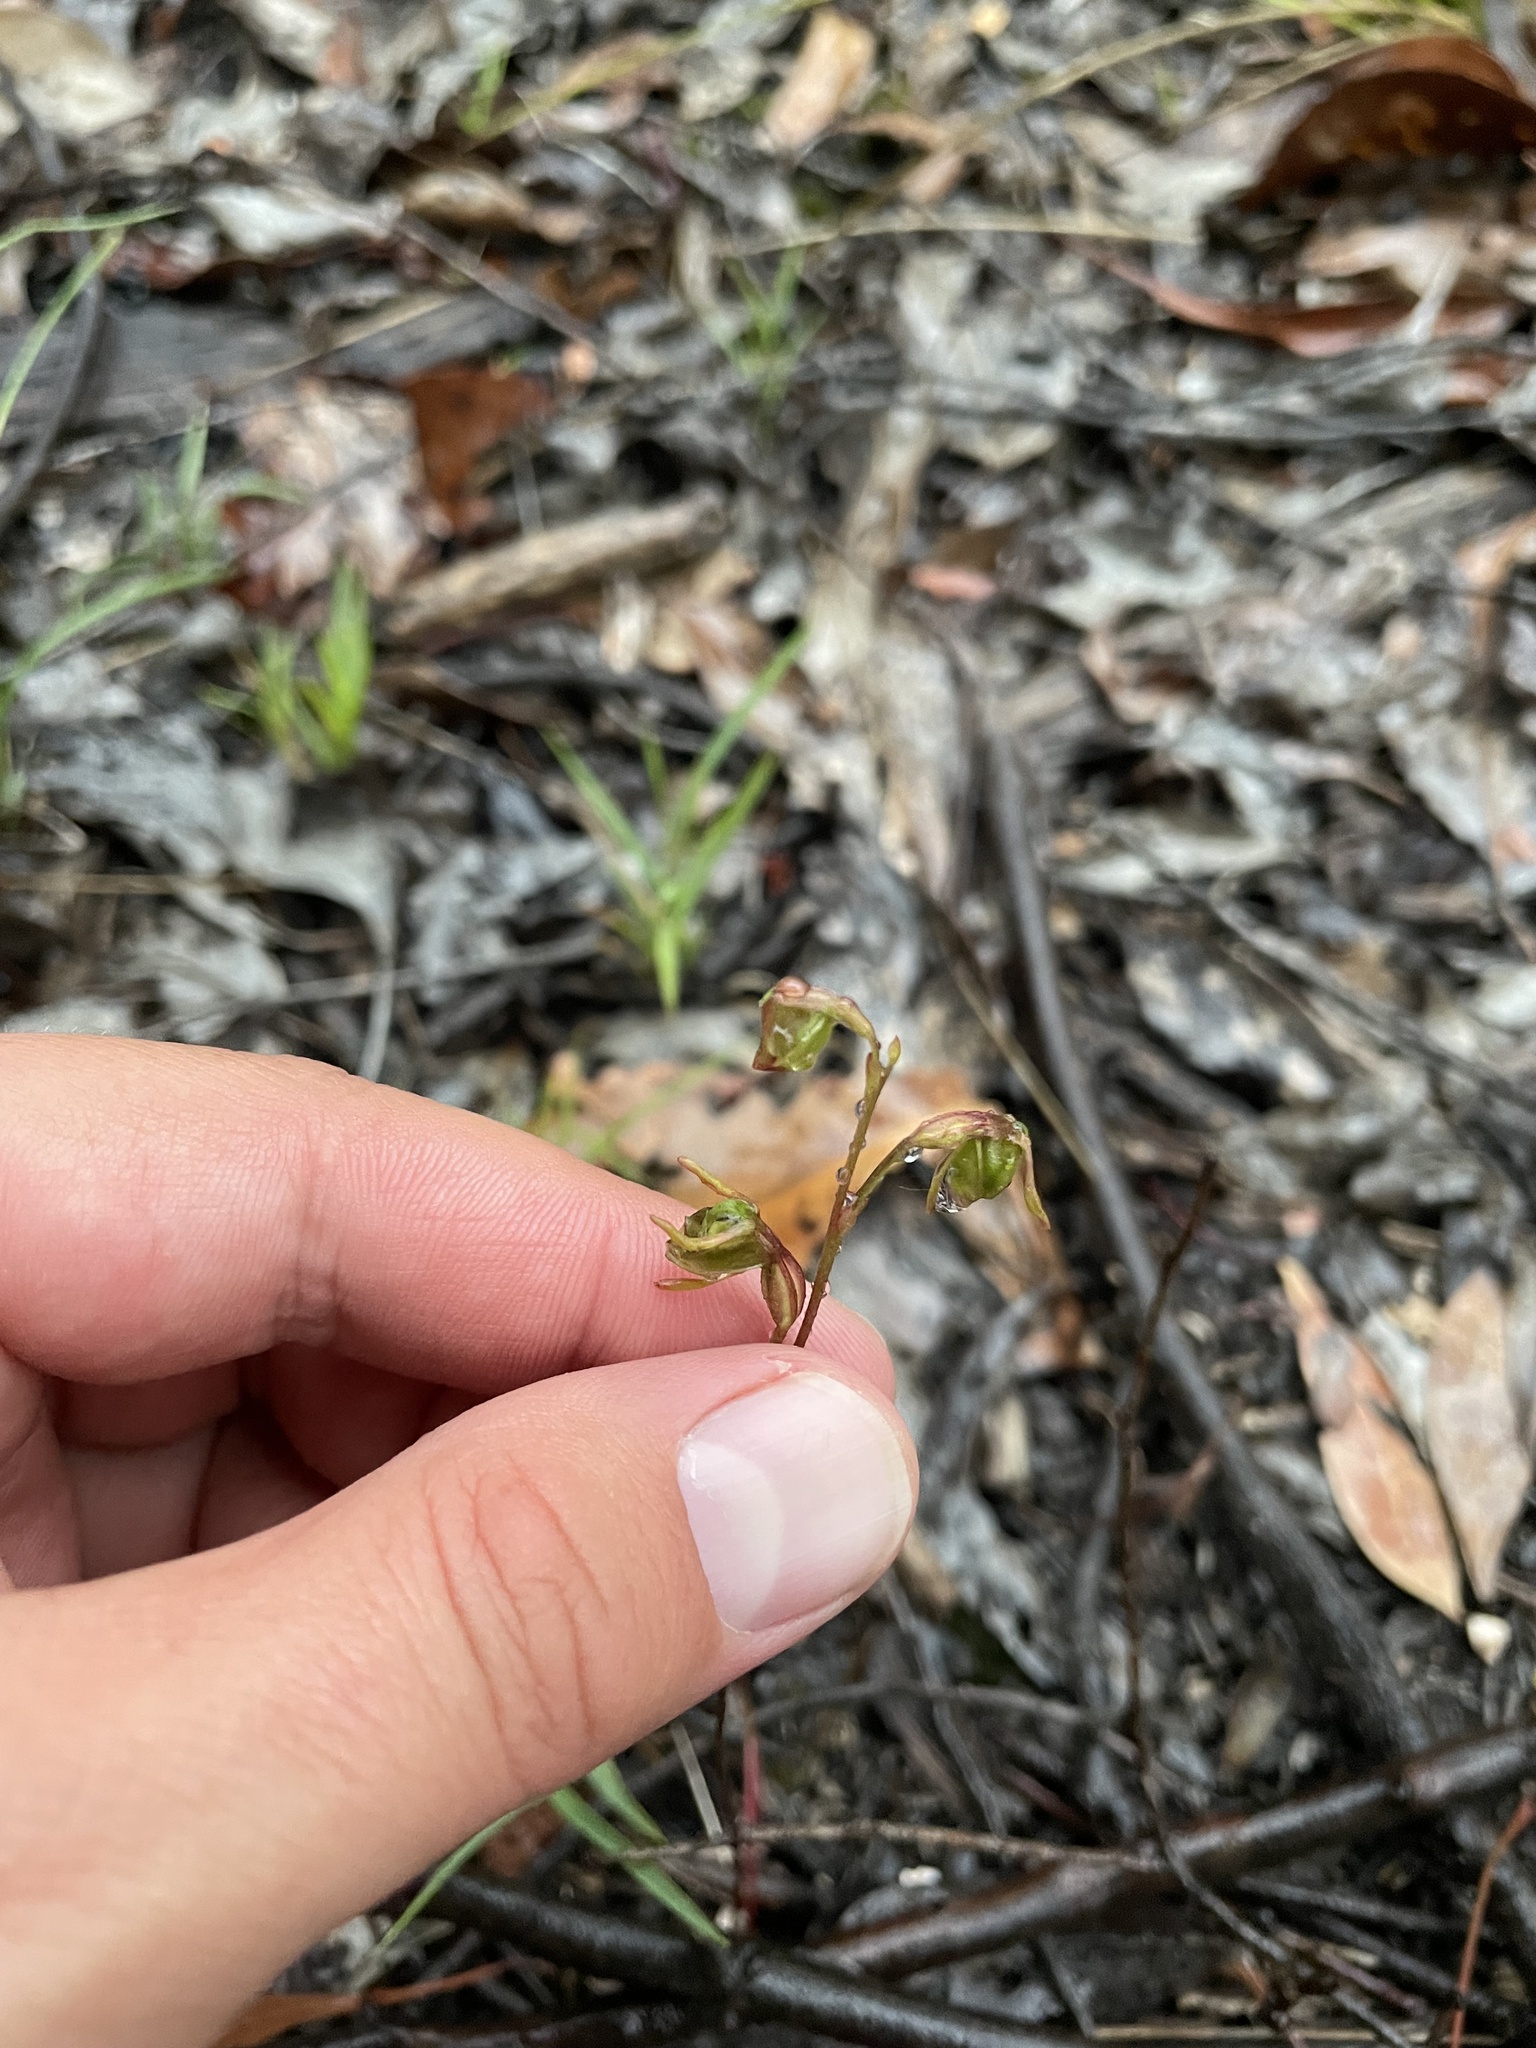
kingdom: Plantae
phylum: Tracheophyta
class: Liliopsida
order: Asparagales
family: Orchidaceae
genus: Caleana
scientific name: Caleana minor
